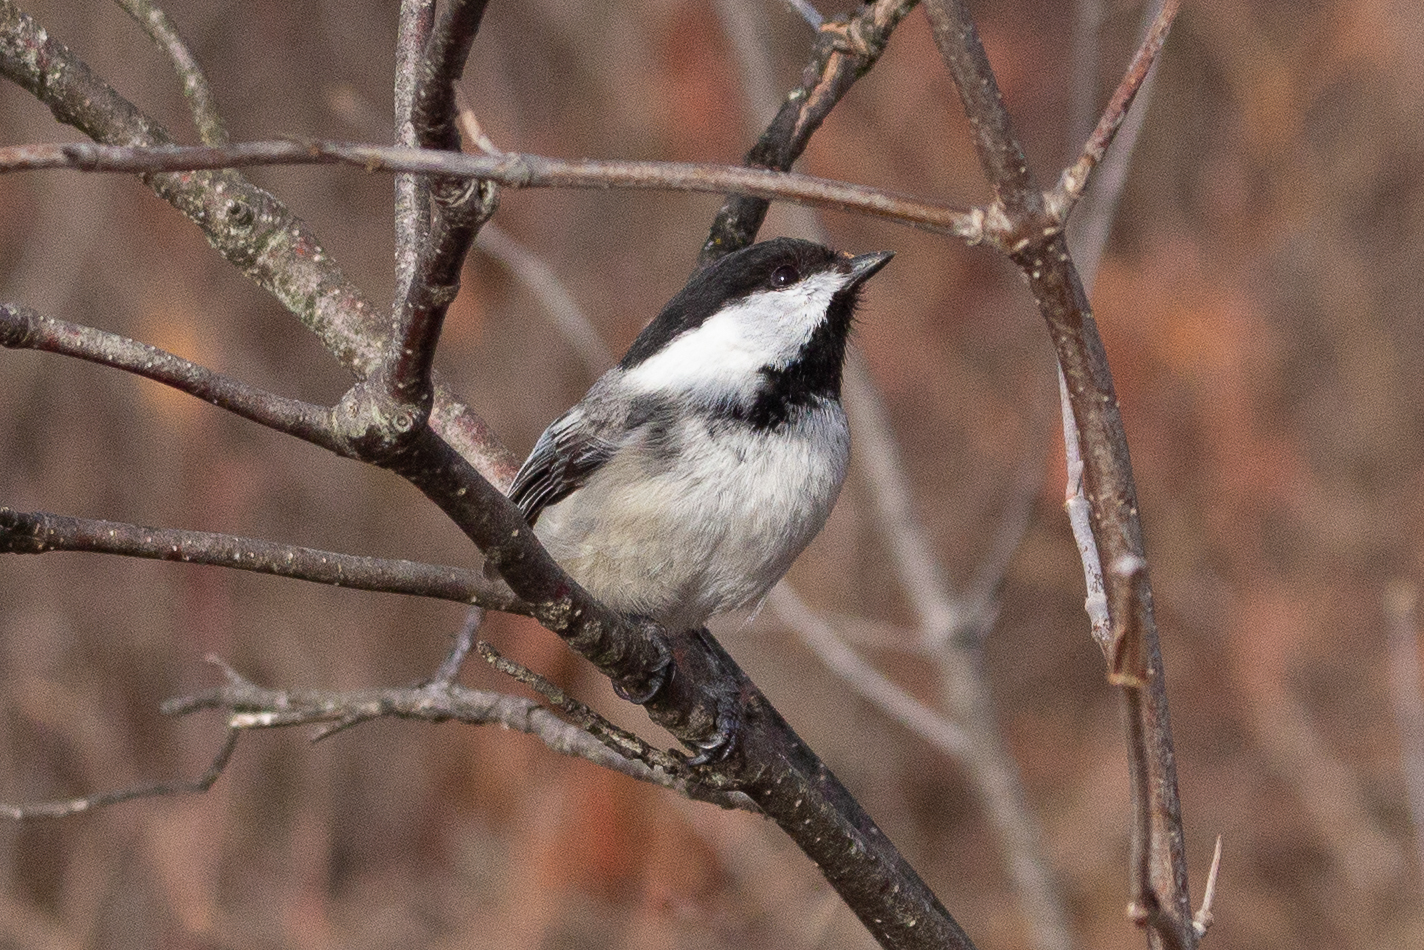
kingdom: Animalia
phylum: Chordata
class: Aves
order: Passeriformes
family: Paridae
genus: Poecile
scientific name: Poecile atricapillus
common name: Black-capped chickadee
